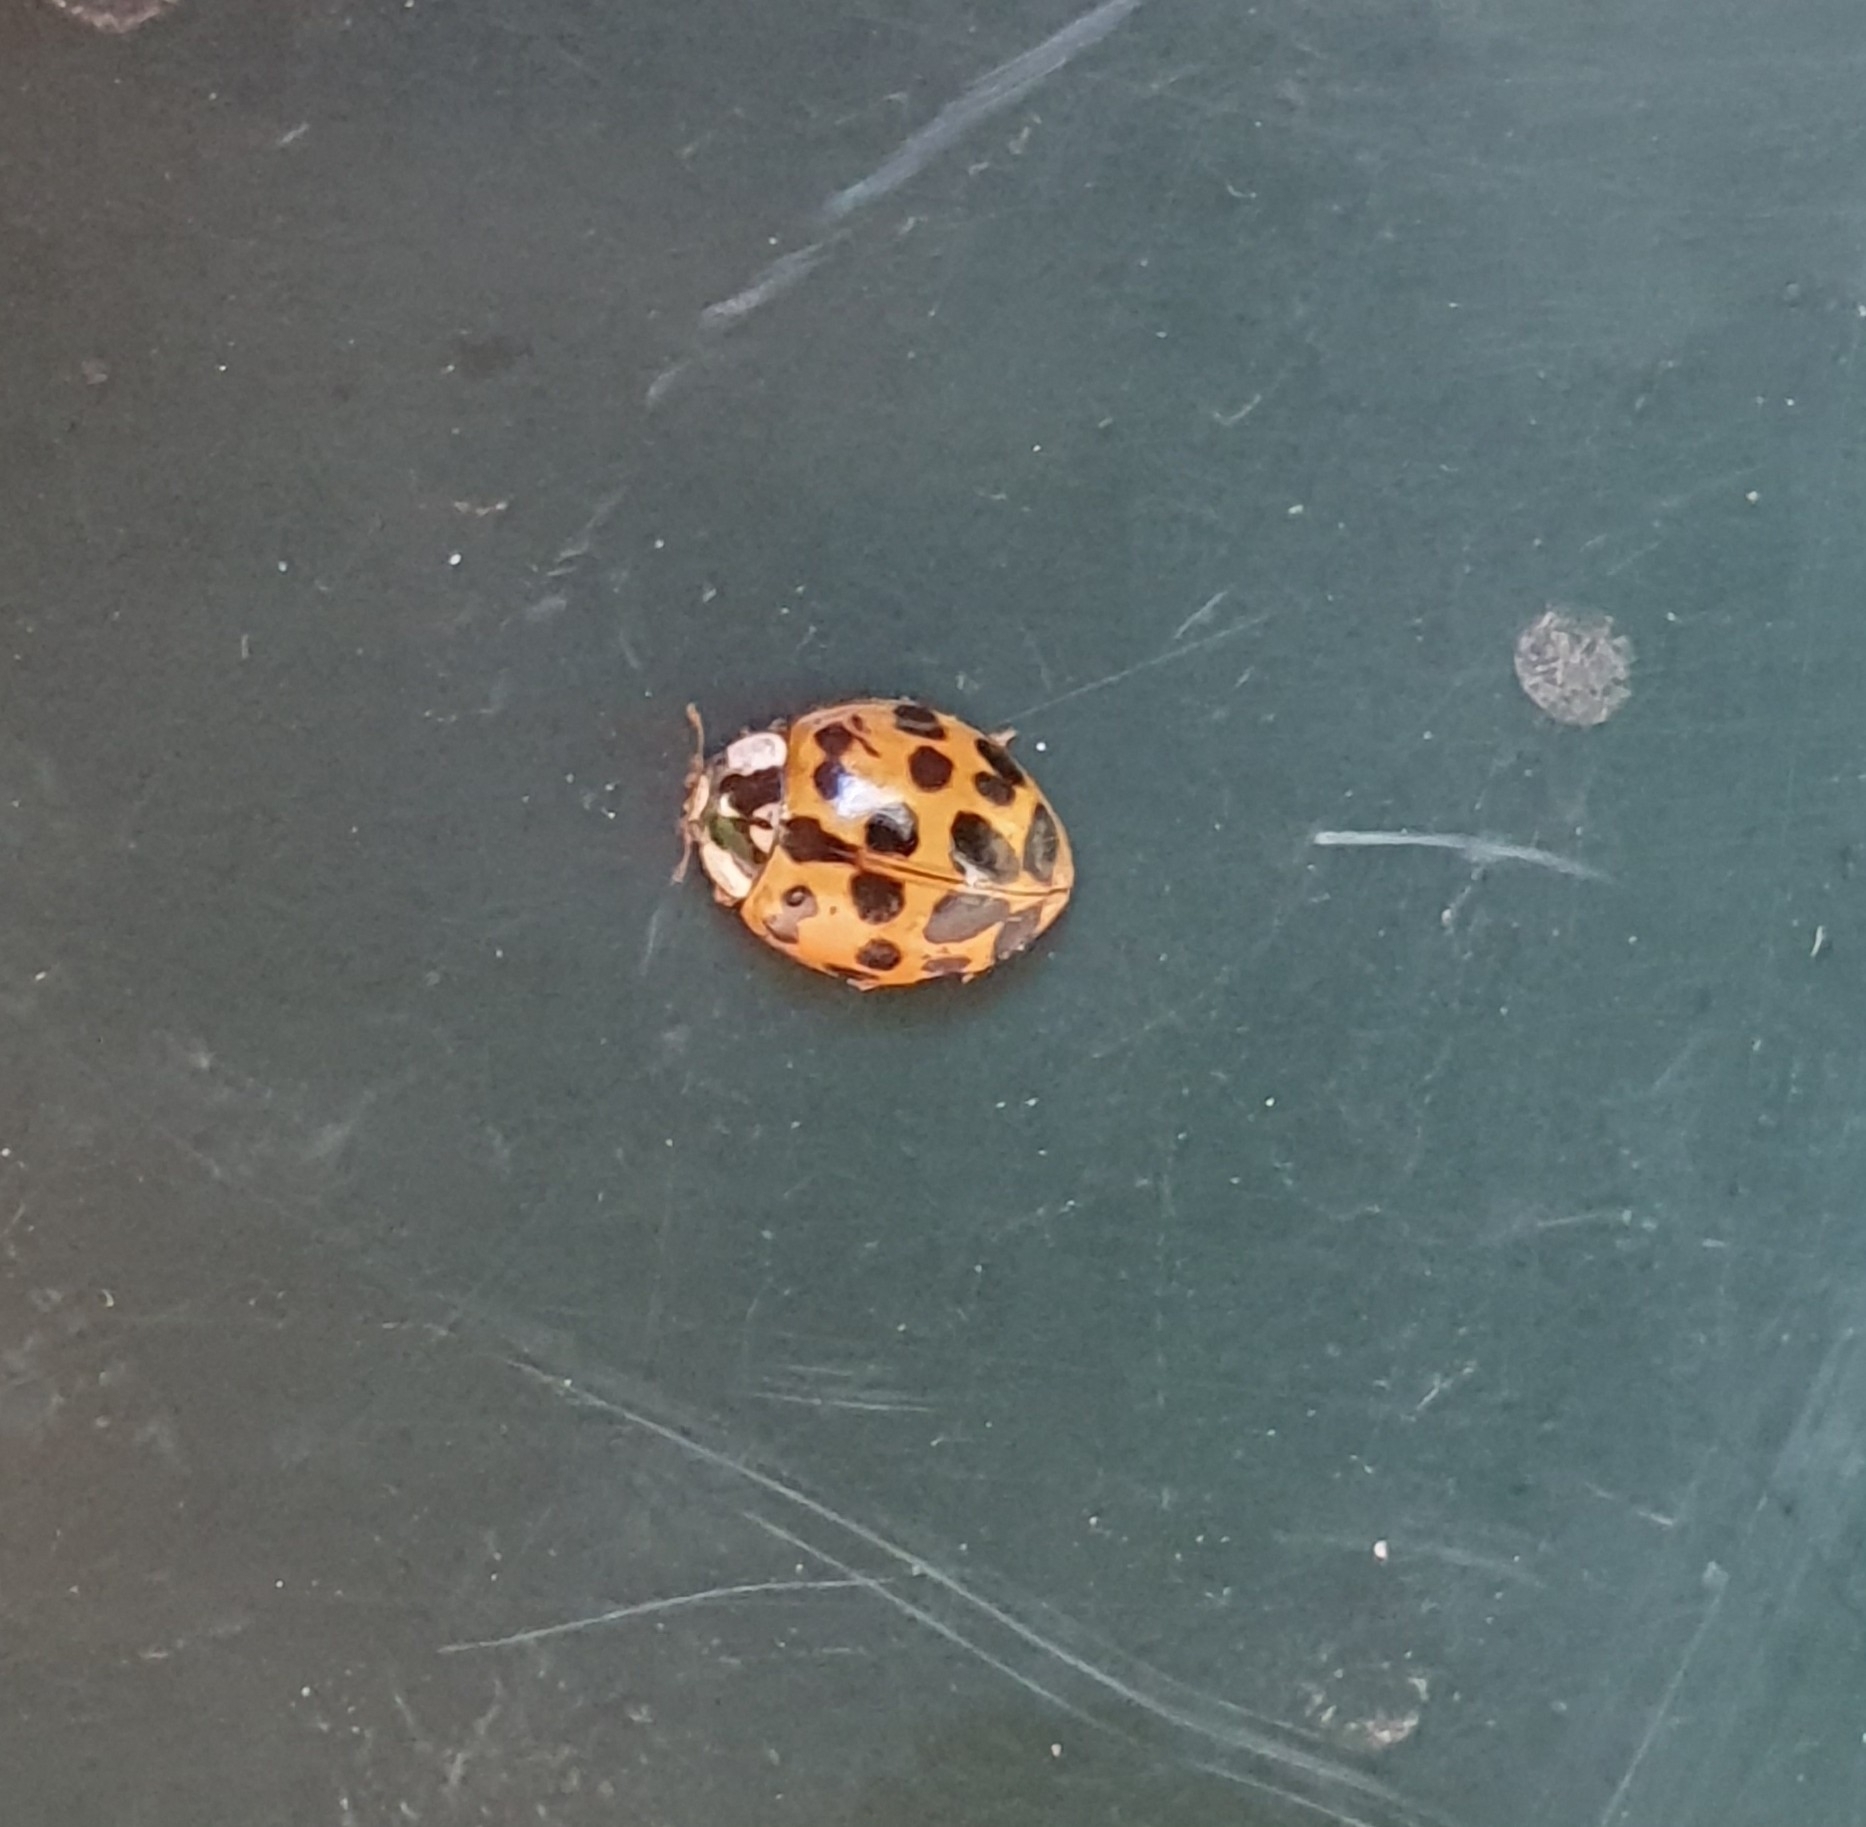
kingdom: Animalia
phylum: Arthropoda
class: Insecta
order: Coleoptera
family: Coccinellidae
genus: Harmonia
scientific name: Harmonia axyridis
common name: Harlequin ladybird
